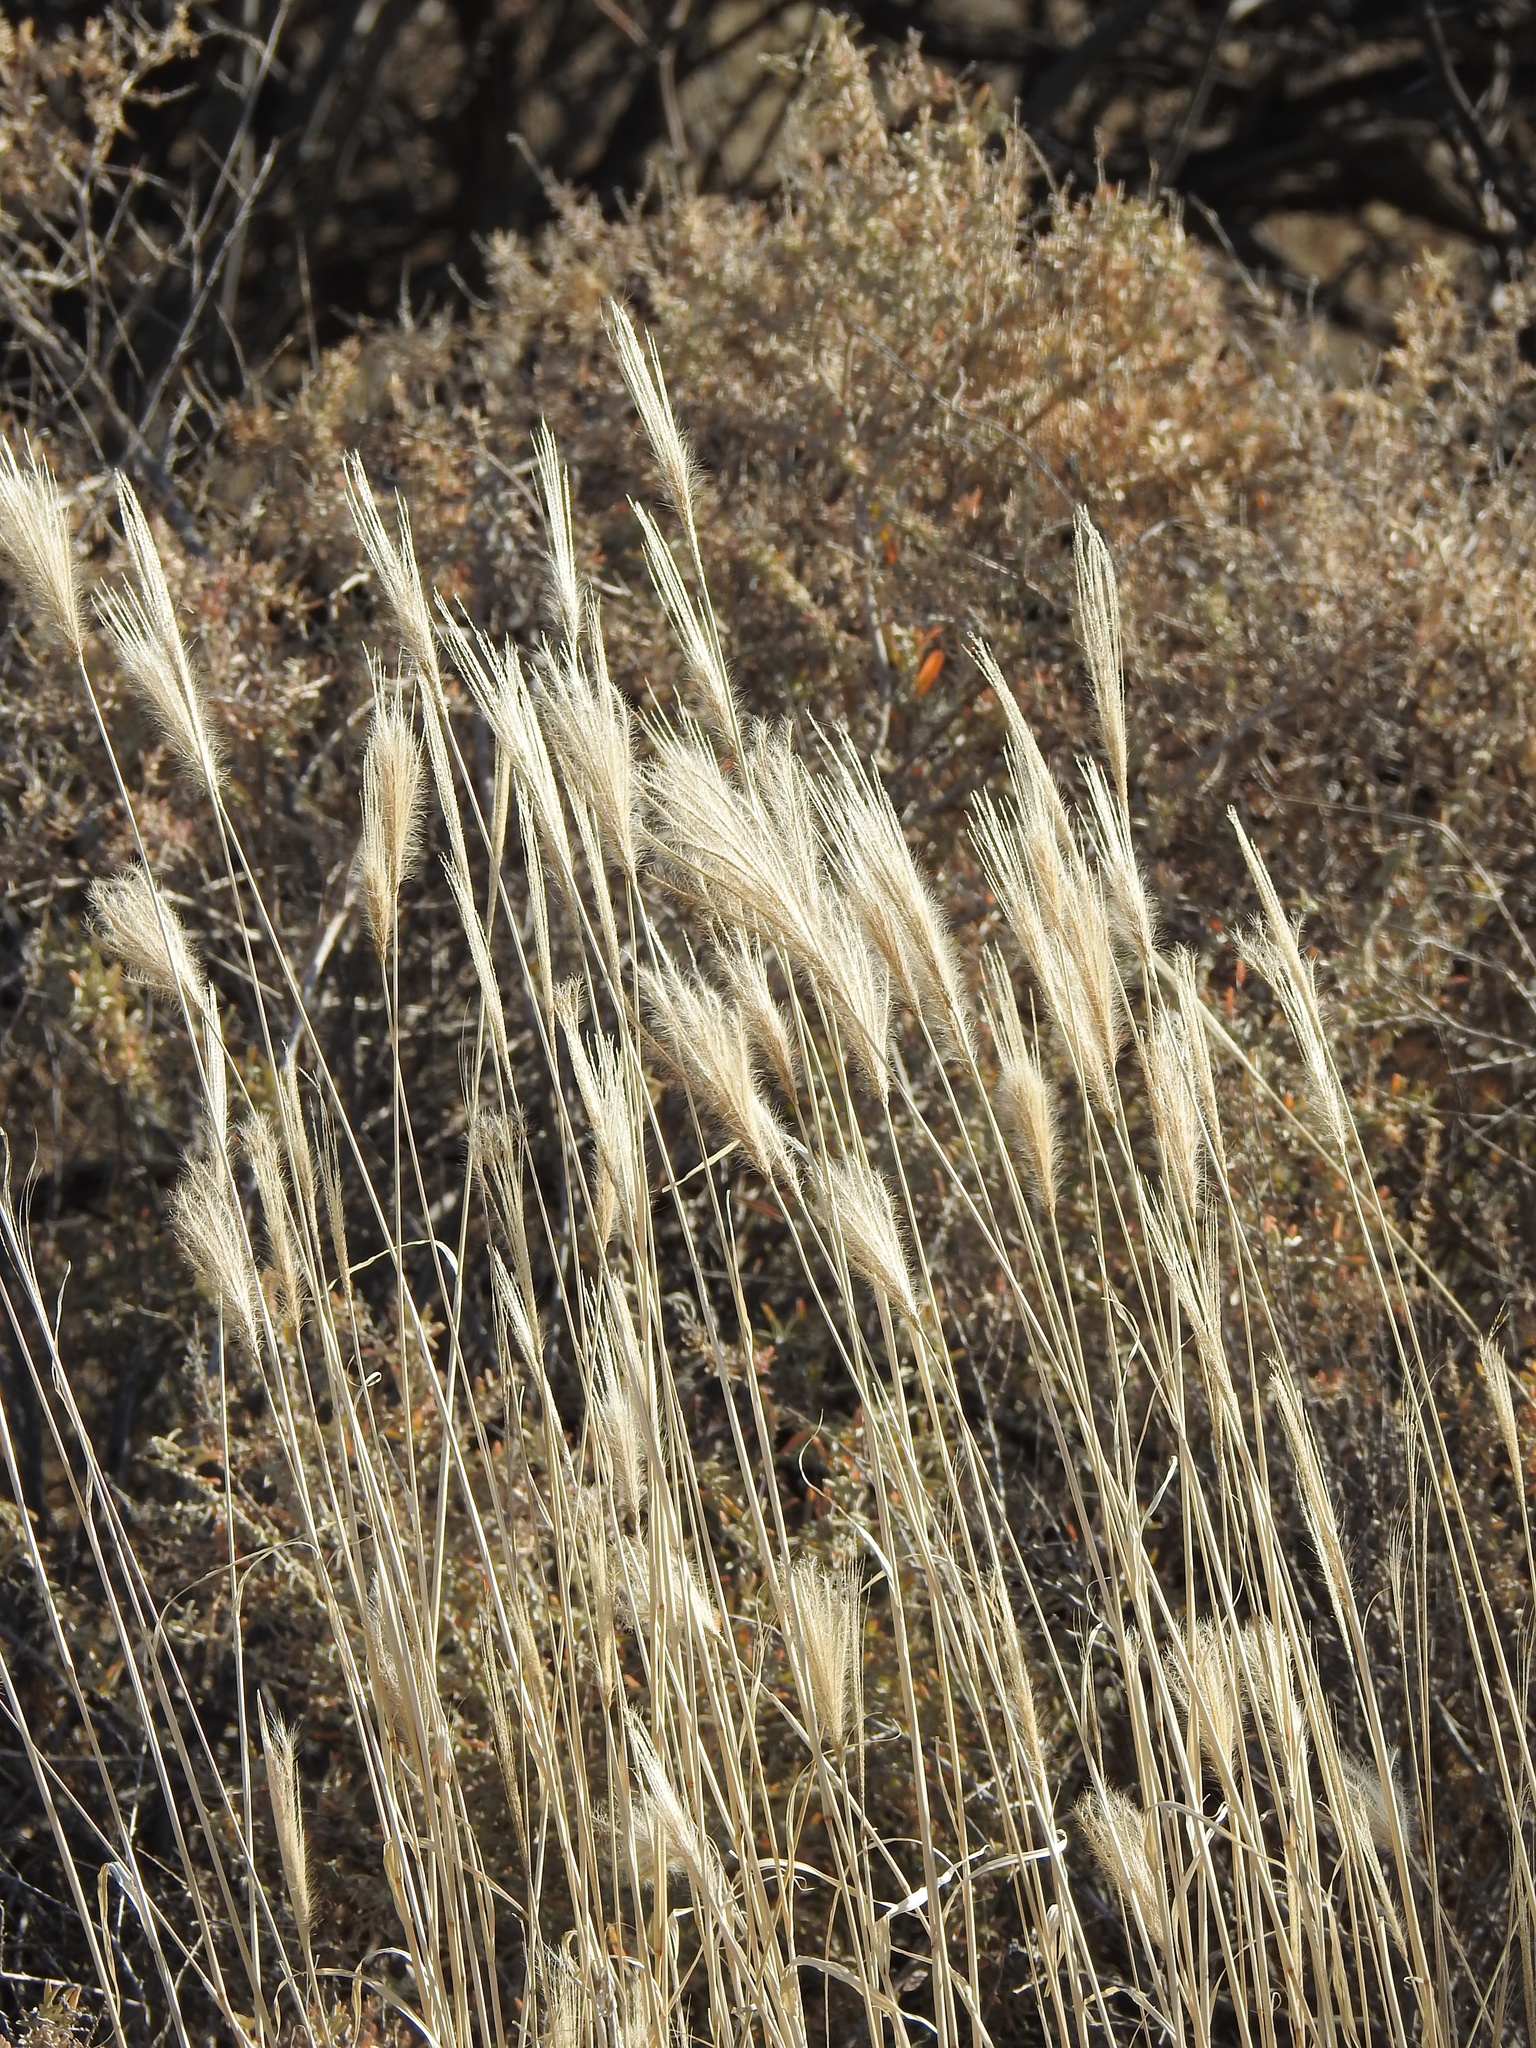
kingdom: Plantae
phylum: Tracheophyta
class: Liliopsida
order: Poales
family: Poaceae
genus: Chloris
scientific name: Chloris virgata
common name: Feathery rhodes-grass
